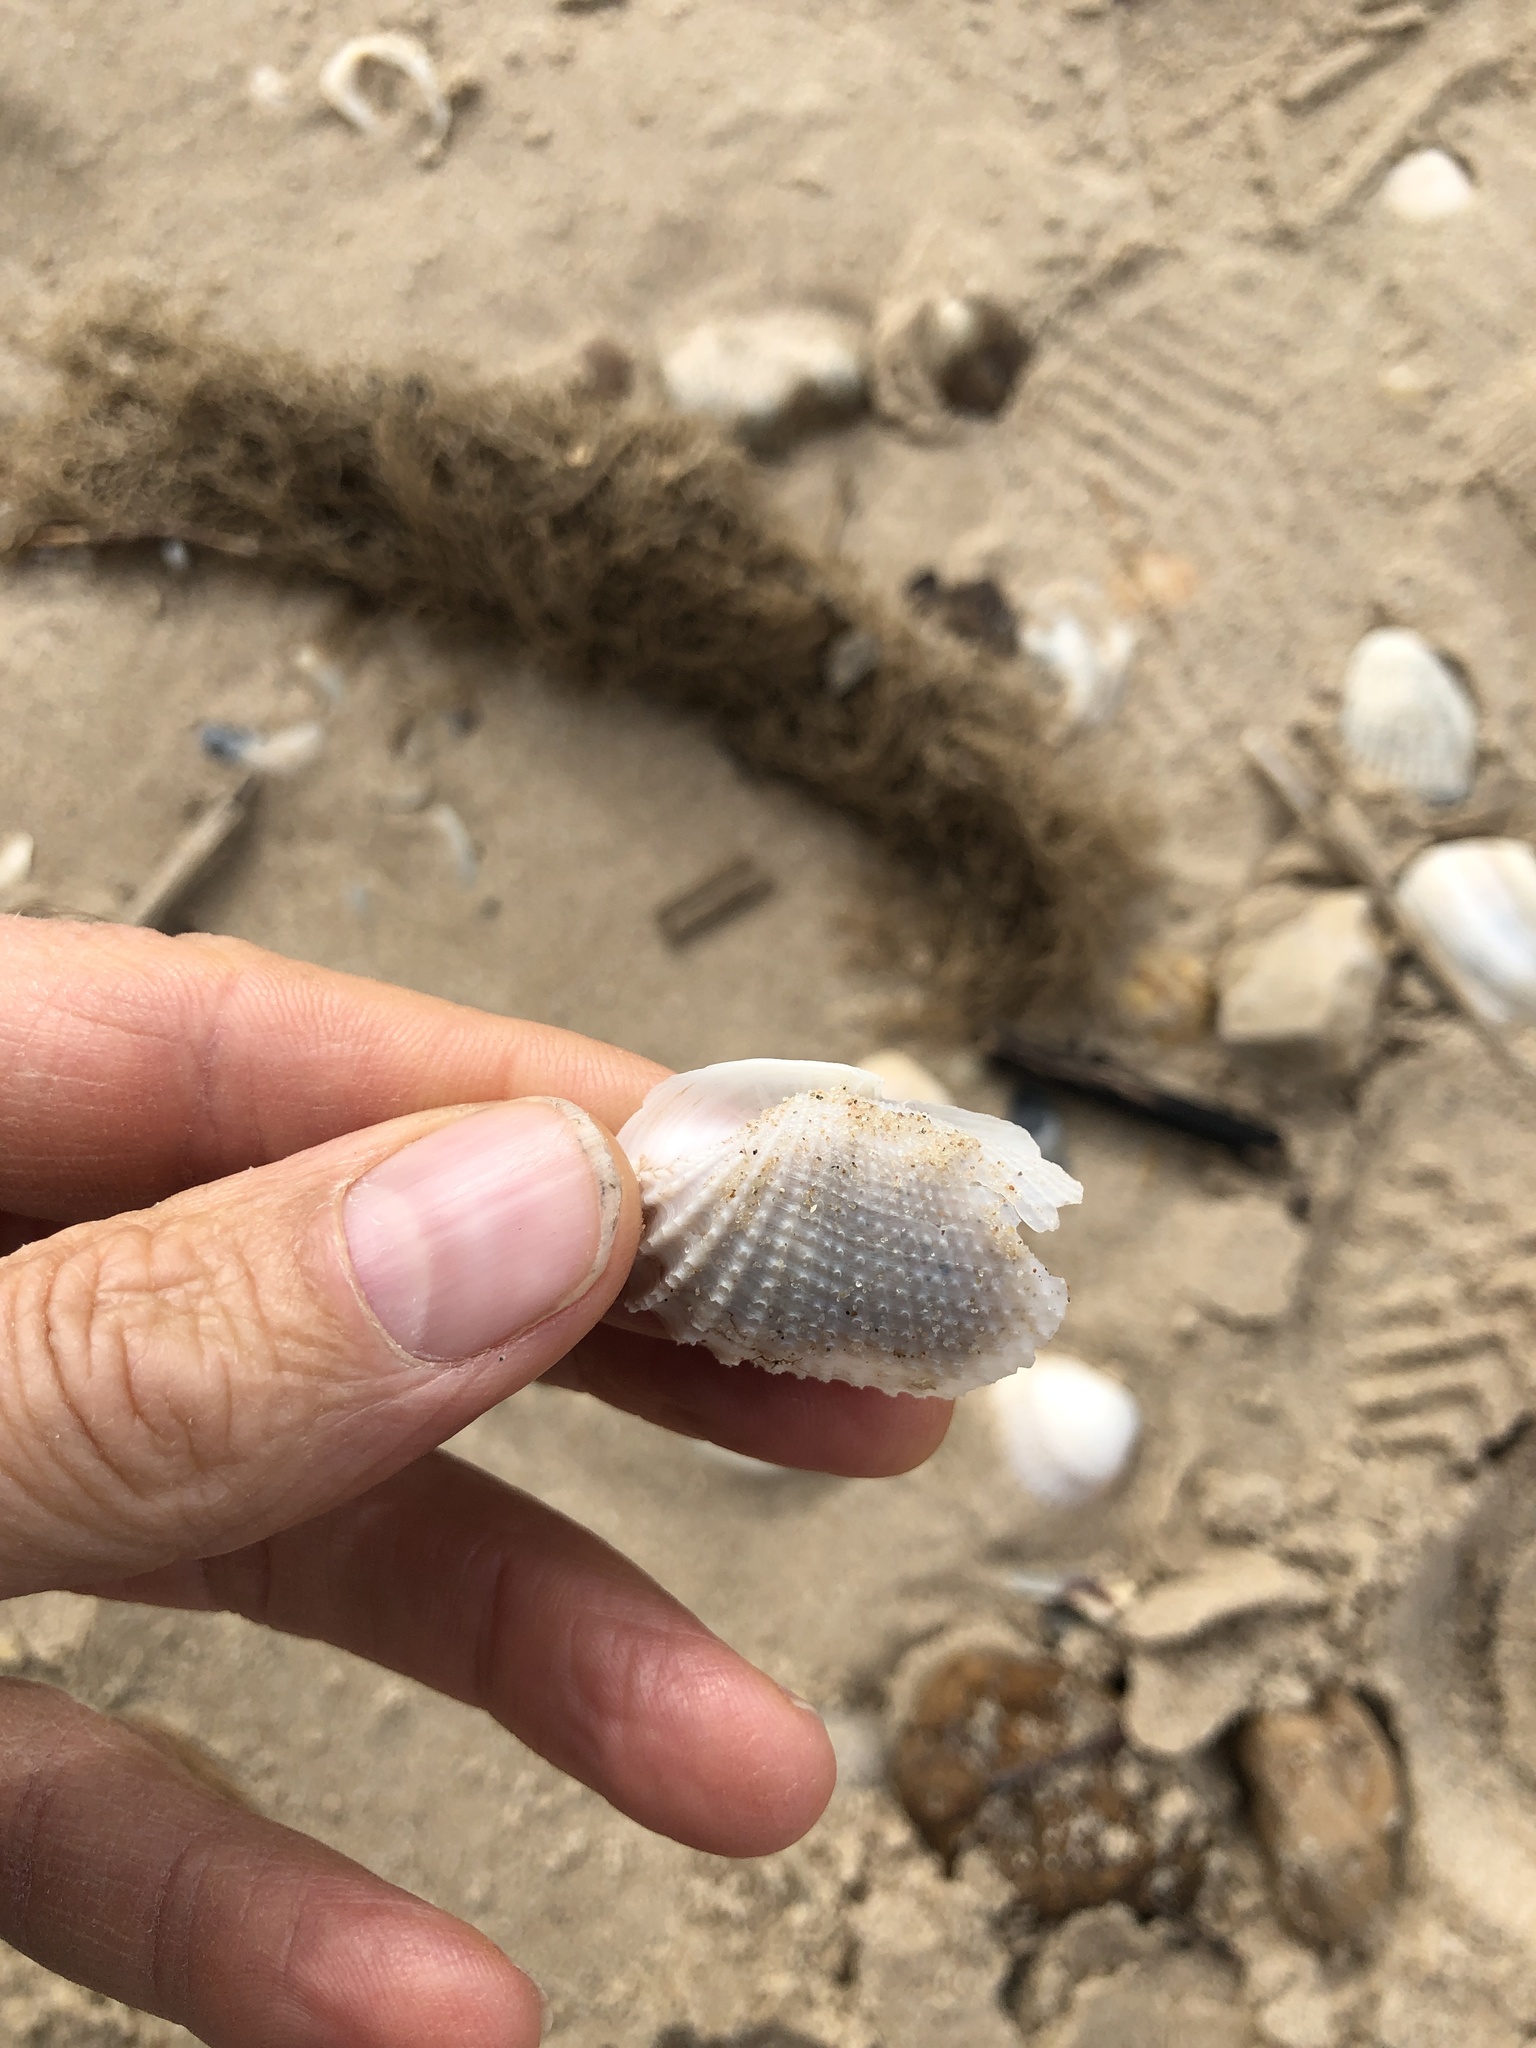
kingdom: Animalia
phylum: Mollusca
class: Bivalvia
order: Myida
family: Pholadidae
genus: Cyrtopleura
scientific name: Cyrtopleura costata
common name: Angel wing
